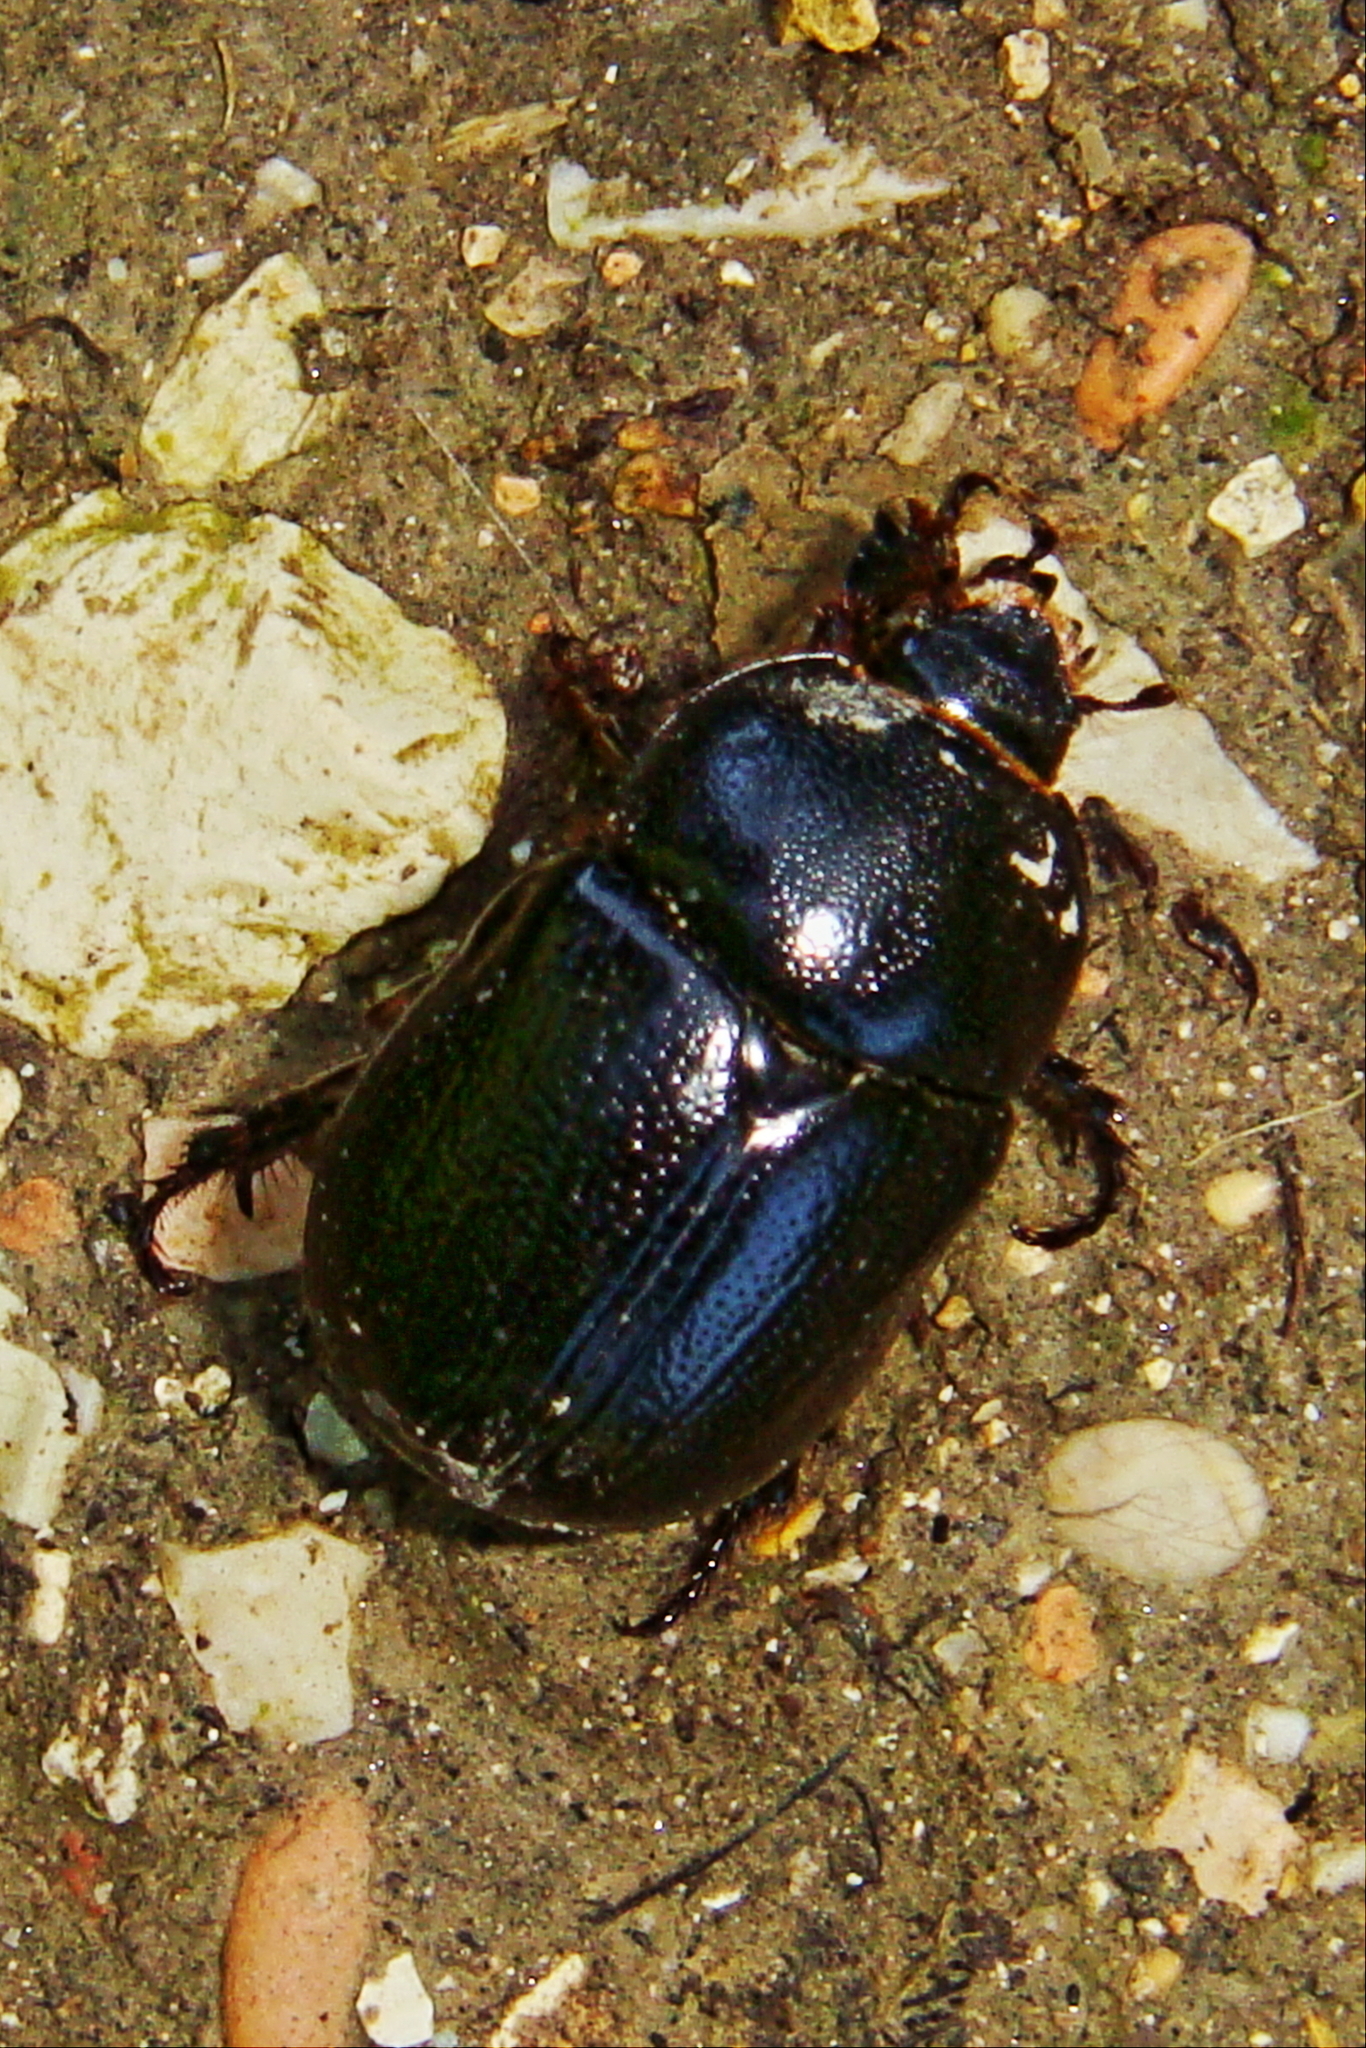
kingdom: Animalia
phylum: Arthropoda
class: Insecta
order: Coleoptera
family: Scarabaeidae
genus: Pentodon
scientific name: Pentodon bidens
